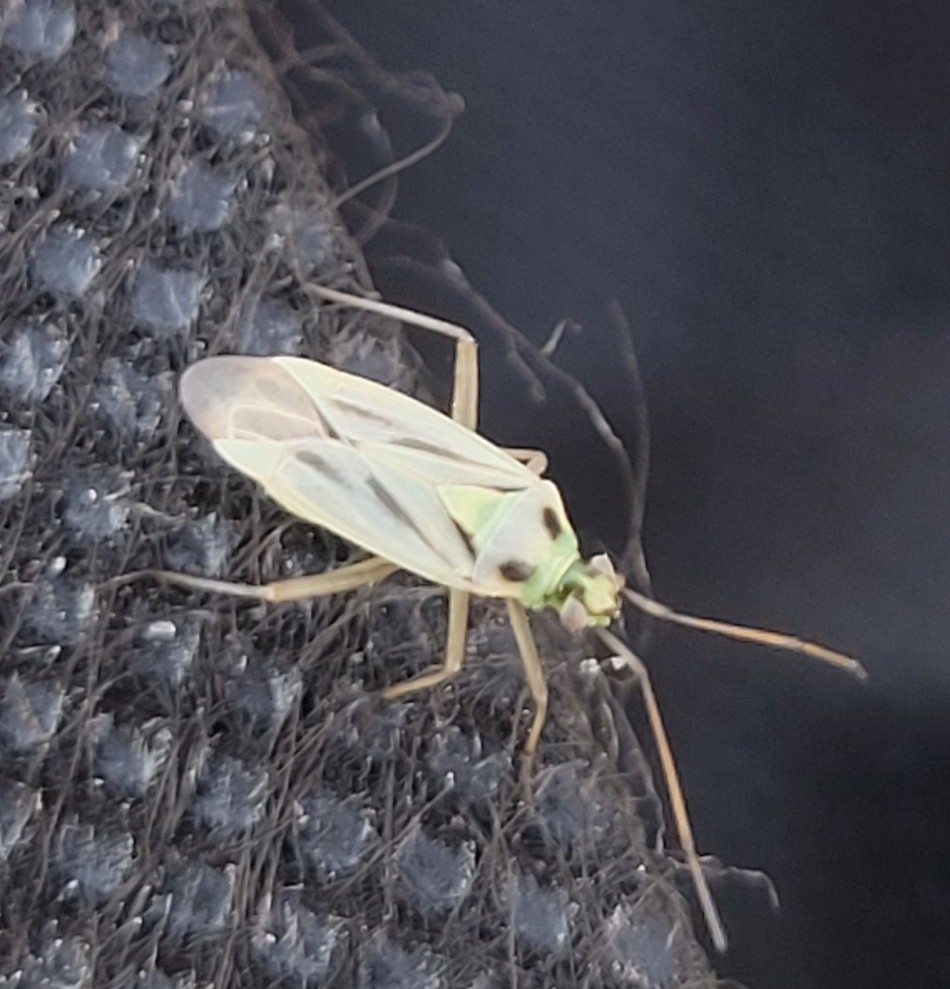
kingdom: Animalia
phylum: Arthropoda
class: Insecta
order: Hemiptera
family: Miridae
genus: Stenotus
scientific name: Stenotus binotatus
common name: Plant bug
